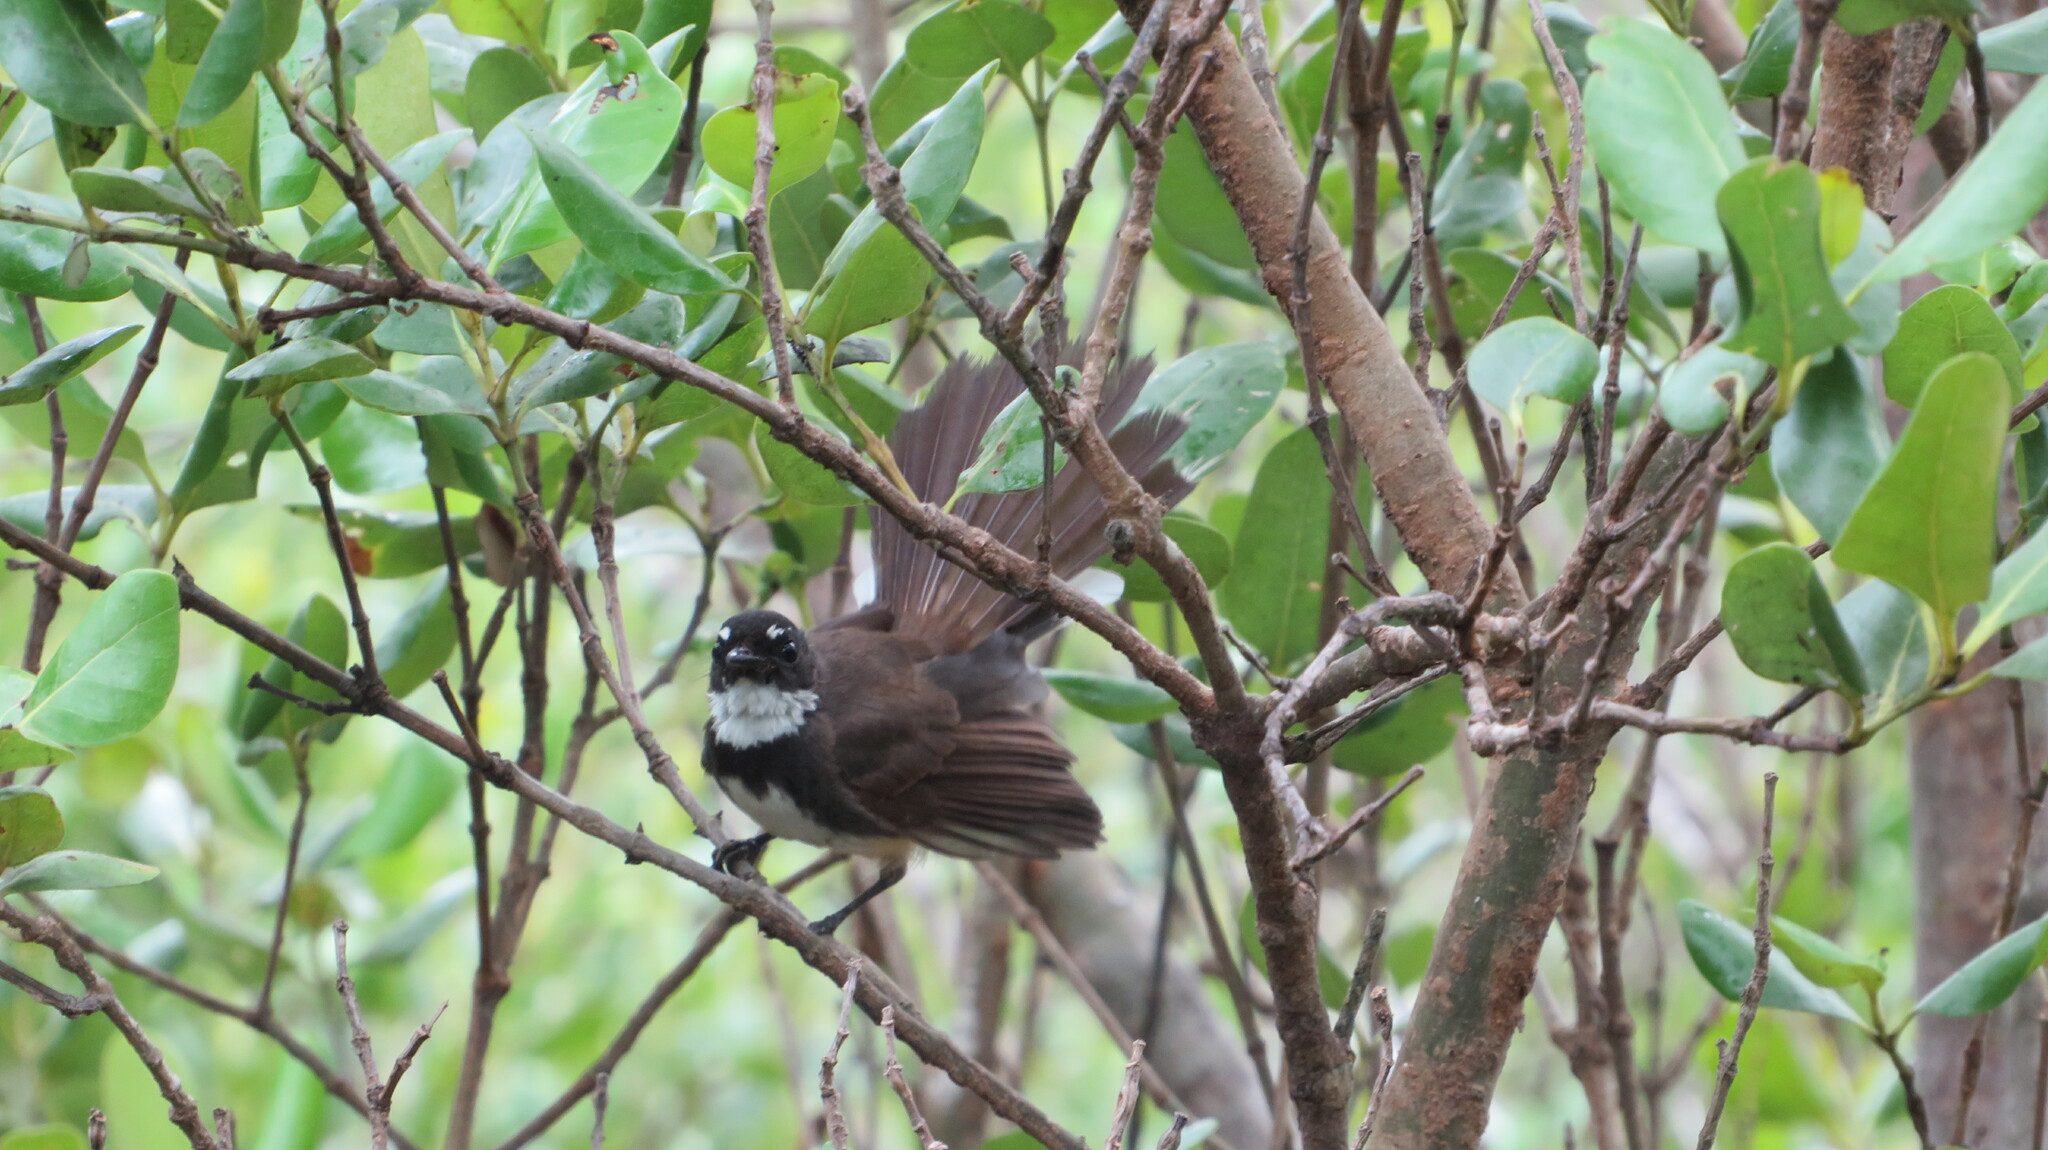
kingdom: Animalia
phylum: Chordata
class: Aves
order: Passeriformes
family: Rhipiduridae
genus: Rhipidura
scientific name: Rhipidura javanica
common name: Pied fantail
